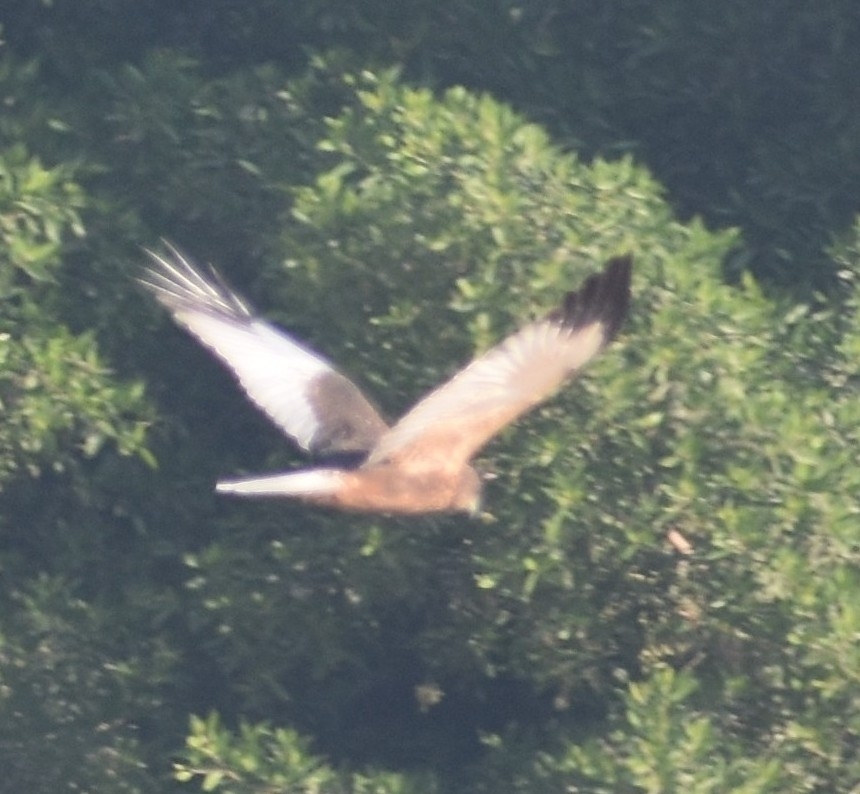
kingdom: Animalia
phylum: Chordata
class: Aves
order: Accipitriformes
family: Accipitridae
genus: Circus
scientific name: Circus aeruginosus
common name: Western marsh harrier
